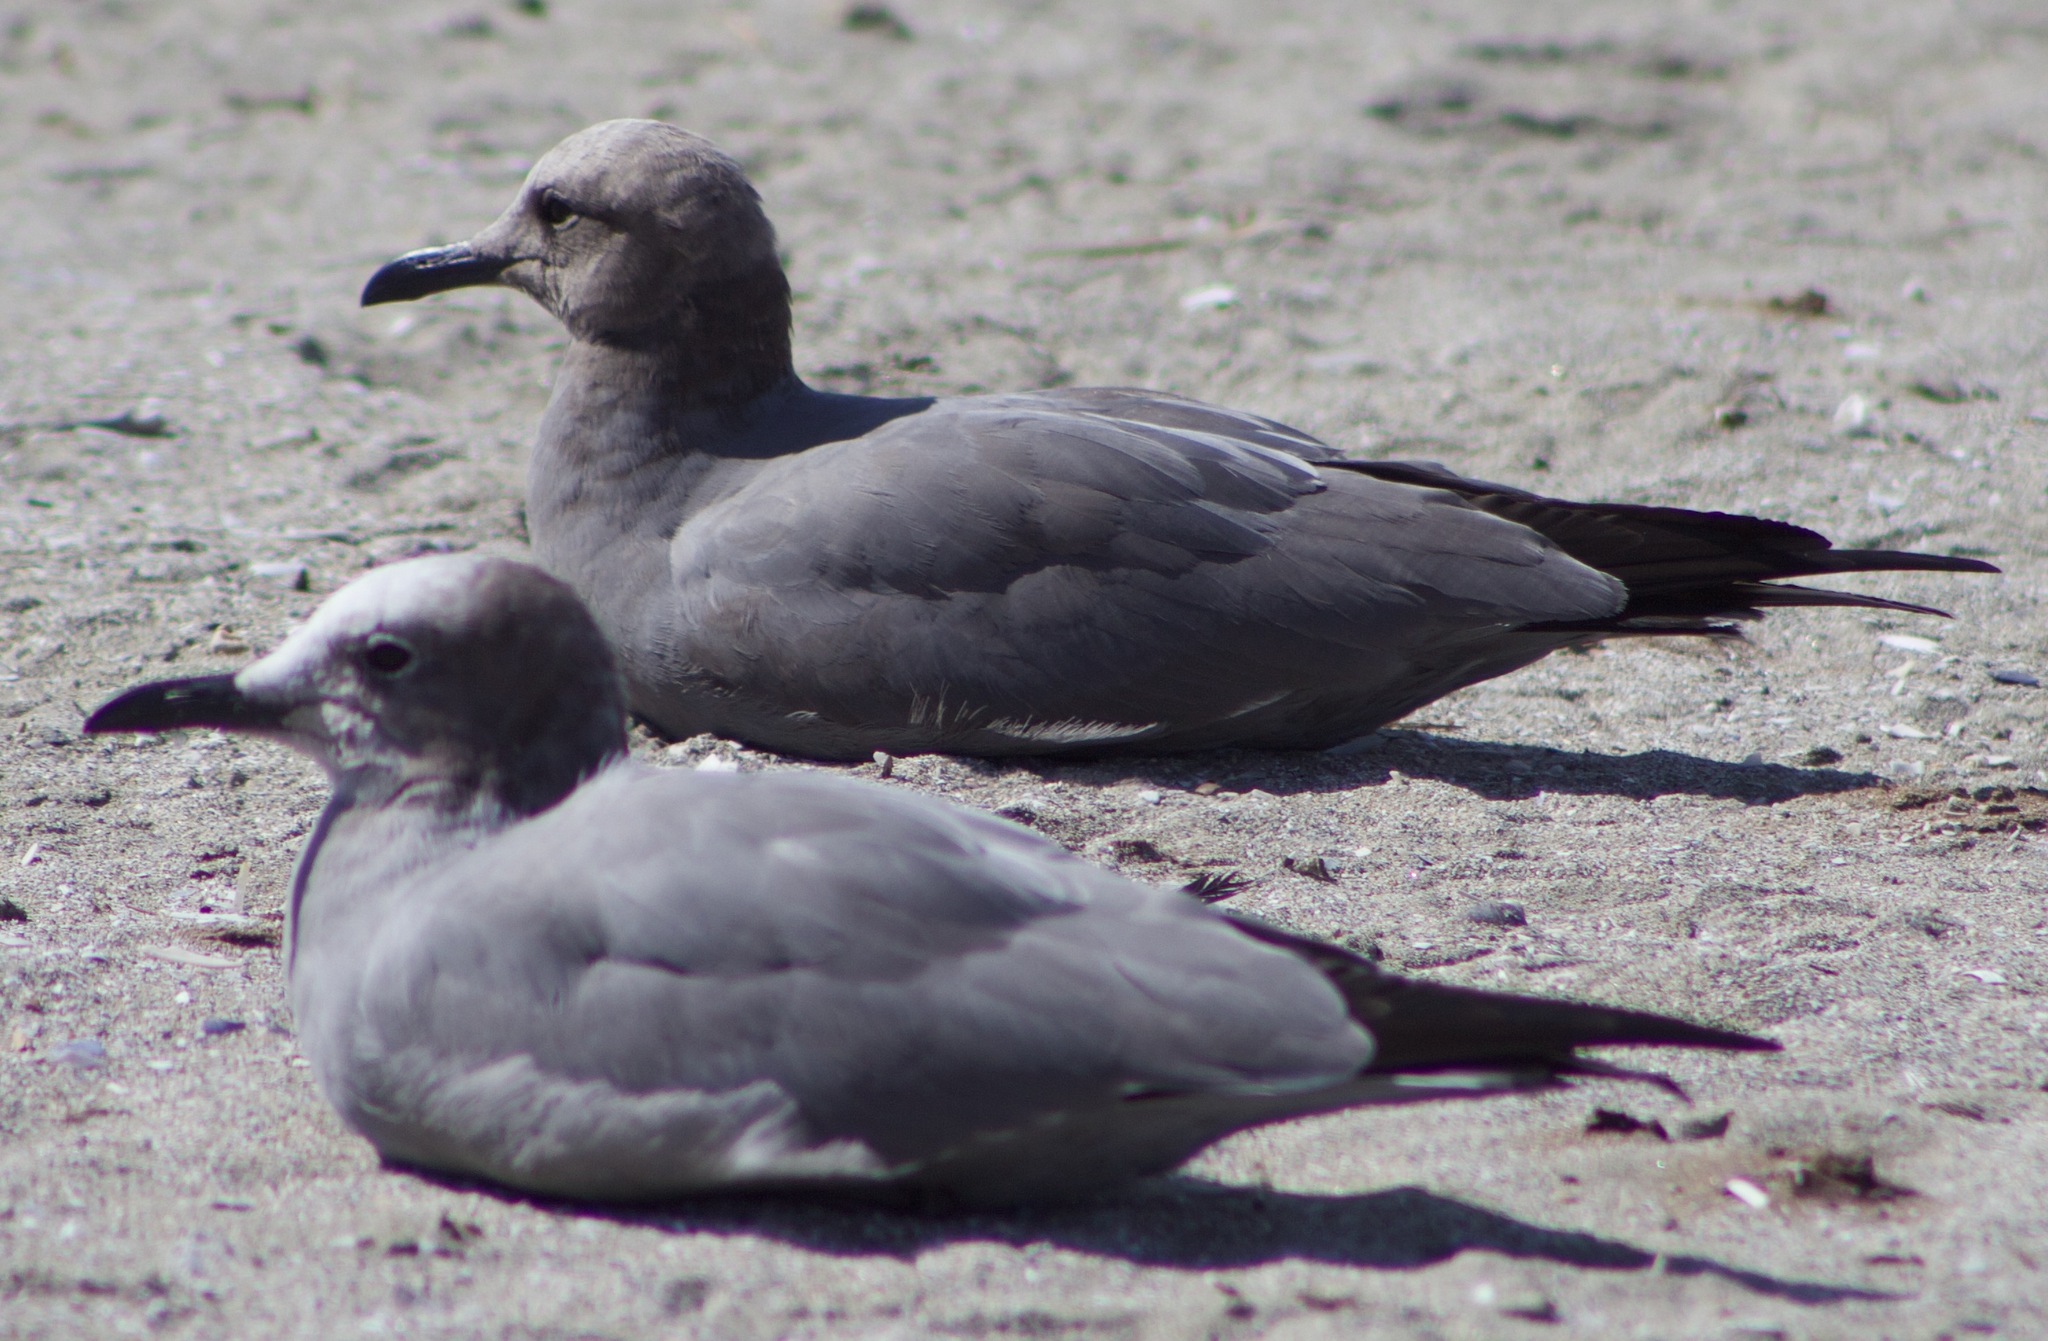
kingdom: Animalia
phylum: Chordata
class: Aves
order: Charadriiformes
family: Laridae
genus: Leucophaeus
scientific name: Leucophaeus modestus
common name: Gray gull
